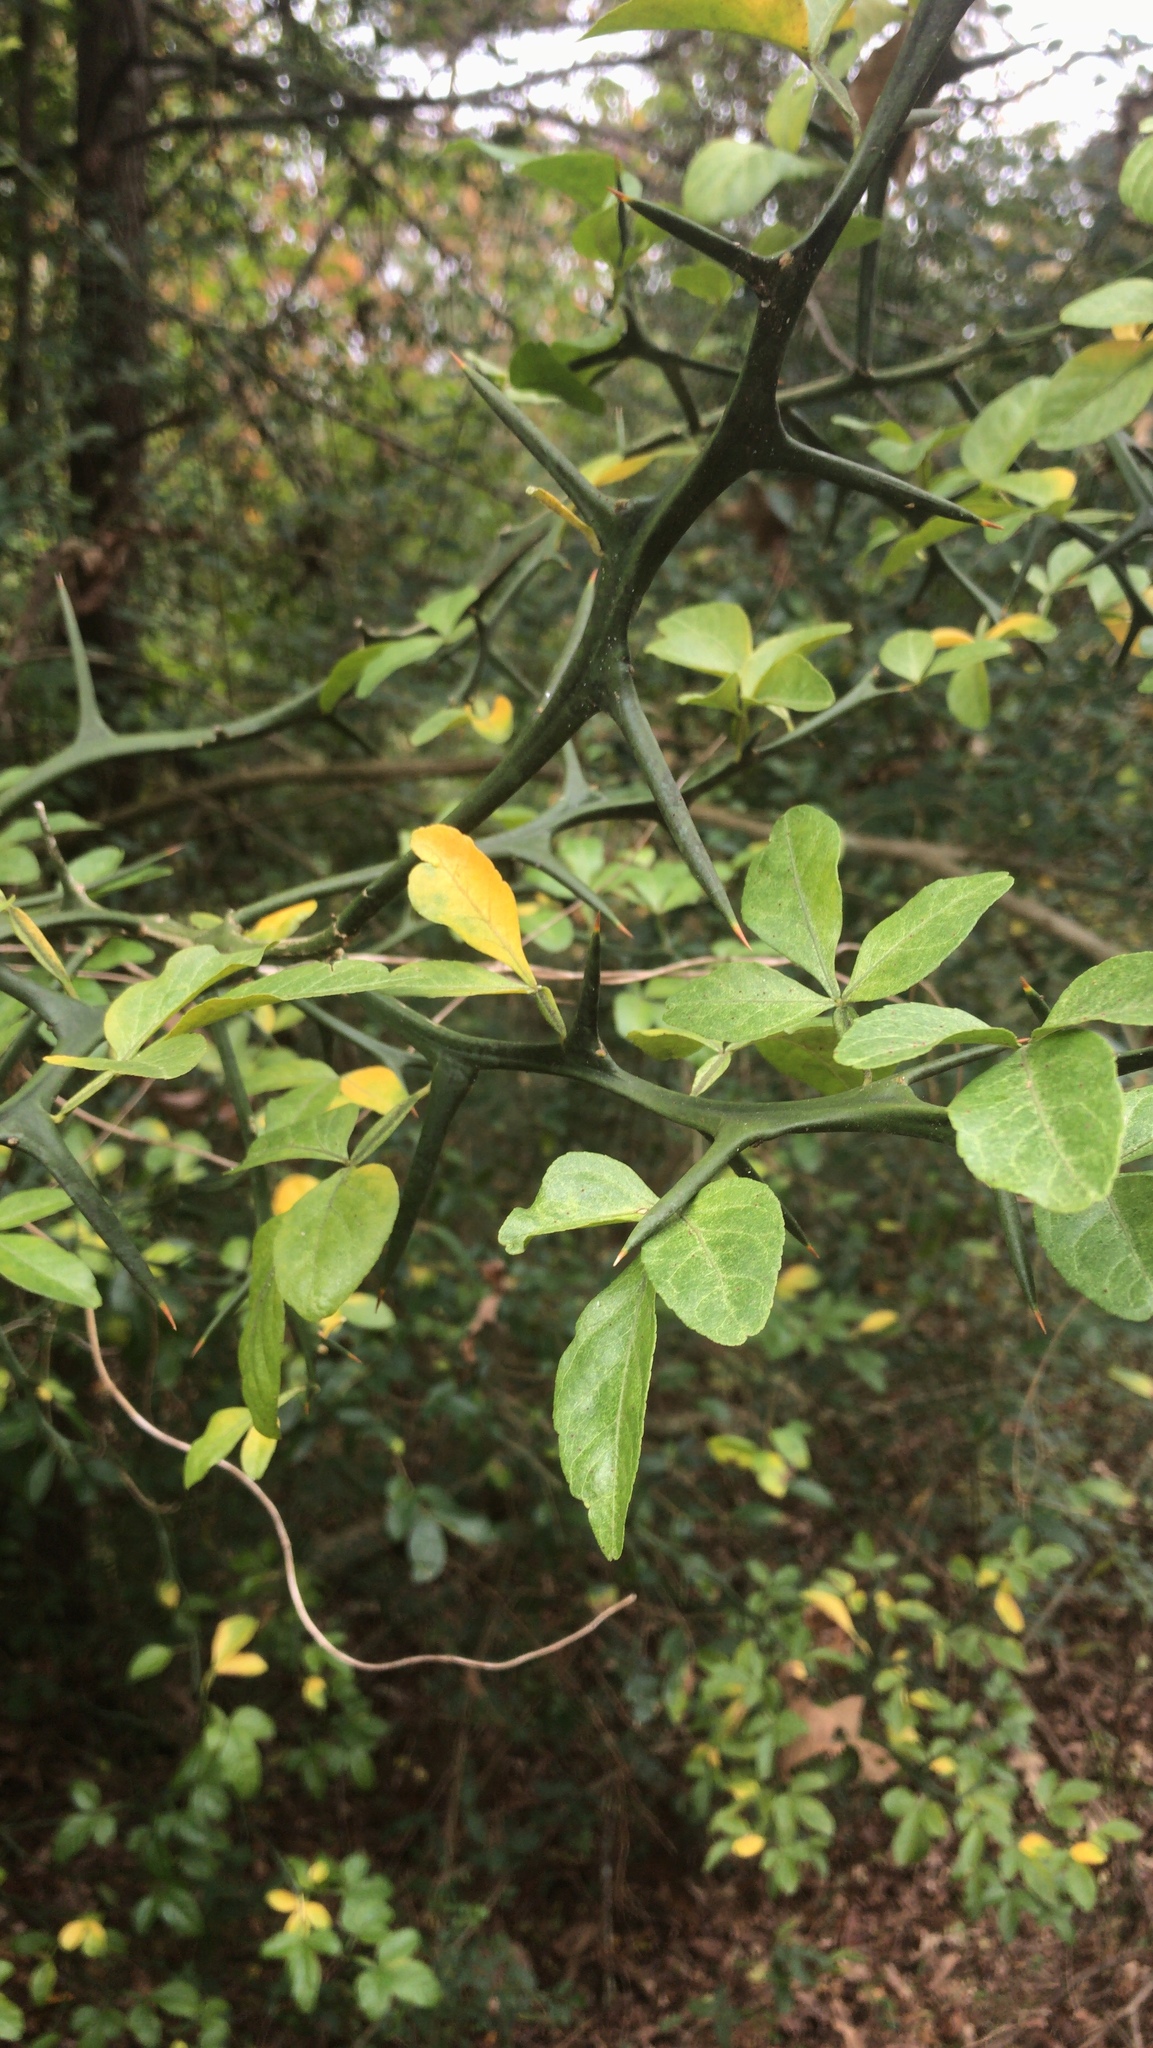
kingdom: Plantae
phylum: Tracheophyta
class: Magnoliopsida
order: Sapindales
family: Rutaceae
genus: Citrus
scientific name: Citrus trifoliata
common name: Japanese bitter-orange
